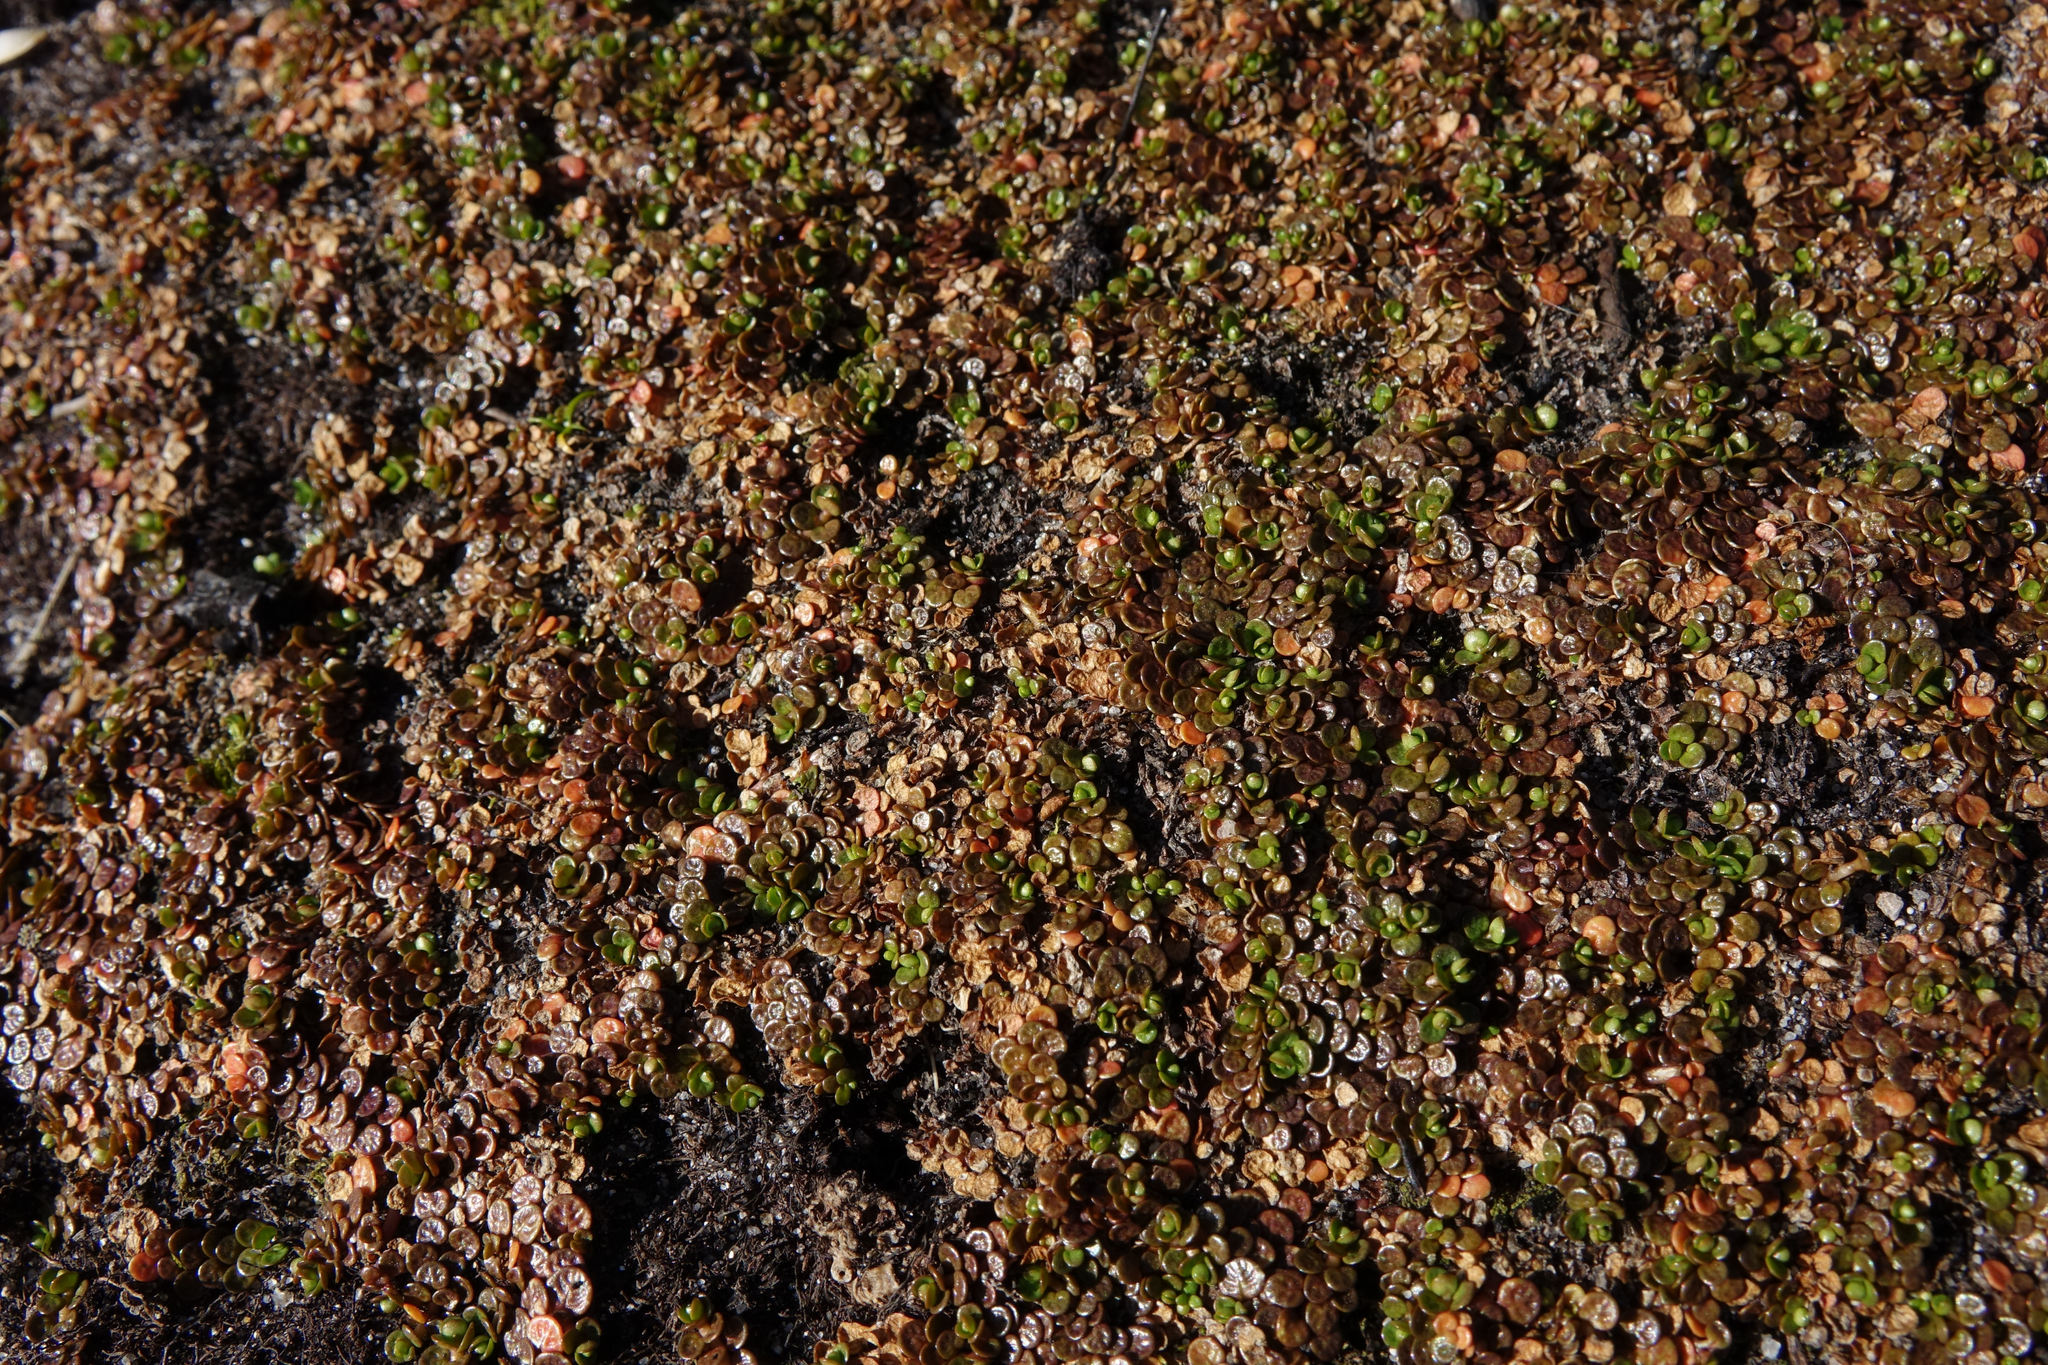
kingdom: Plantae
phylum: Tracheophyta
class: Magnoliopsida
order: Myrtales
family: Onagraceae
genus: Epilobium
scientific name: Epilobium komarovianum
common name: Bronzy willowherb
